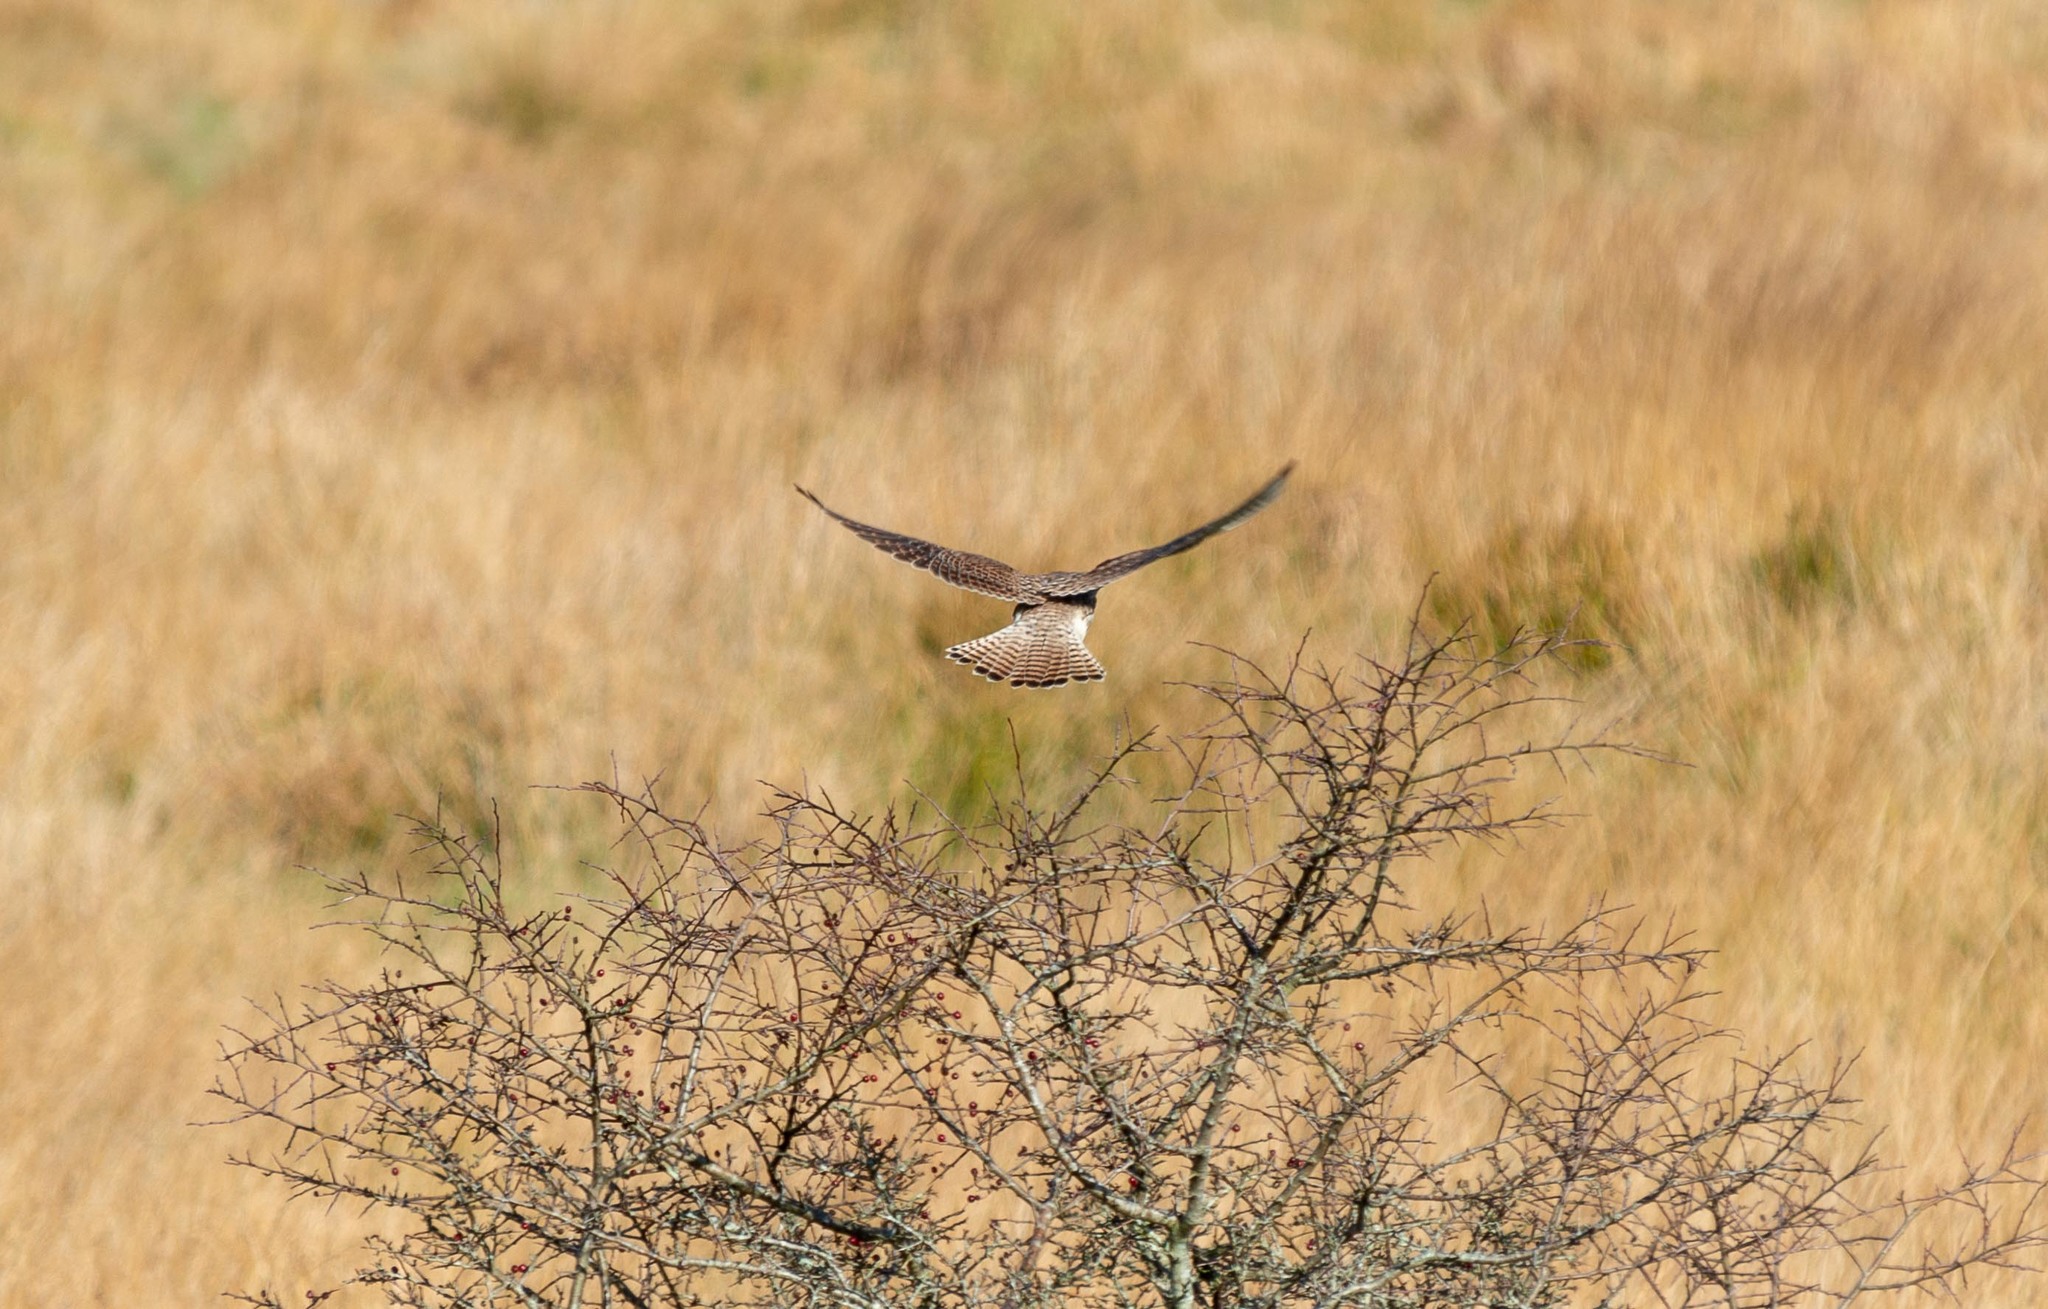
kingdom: Animalia
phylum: Chordata
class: Aves
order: Falconiformes
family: Falconidae
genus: Falco
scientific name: Falco tinnunculus
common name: Common kestrel
